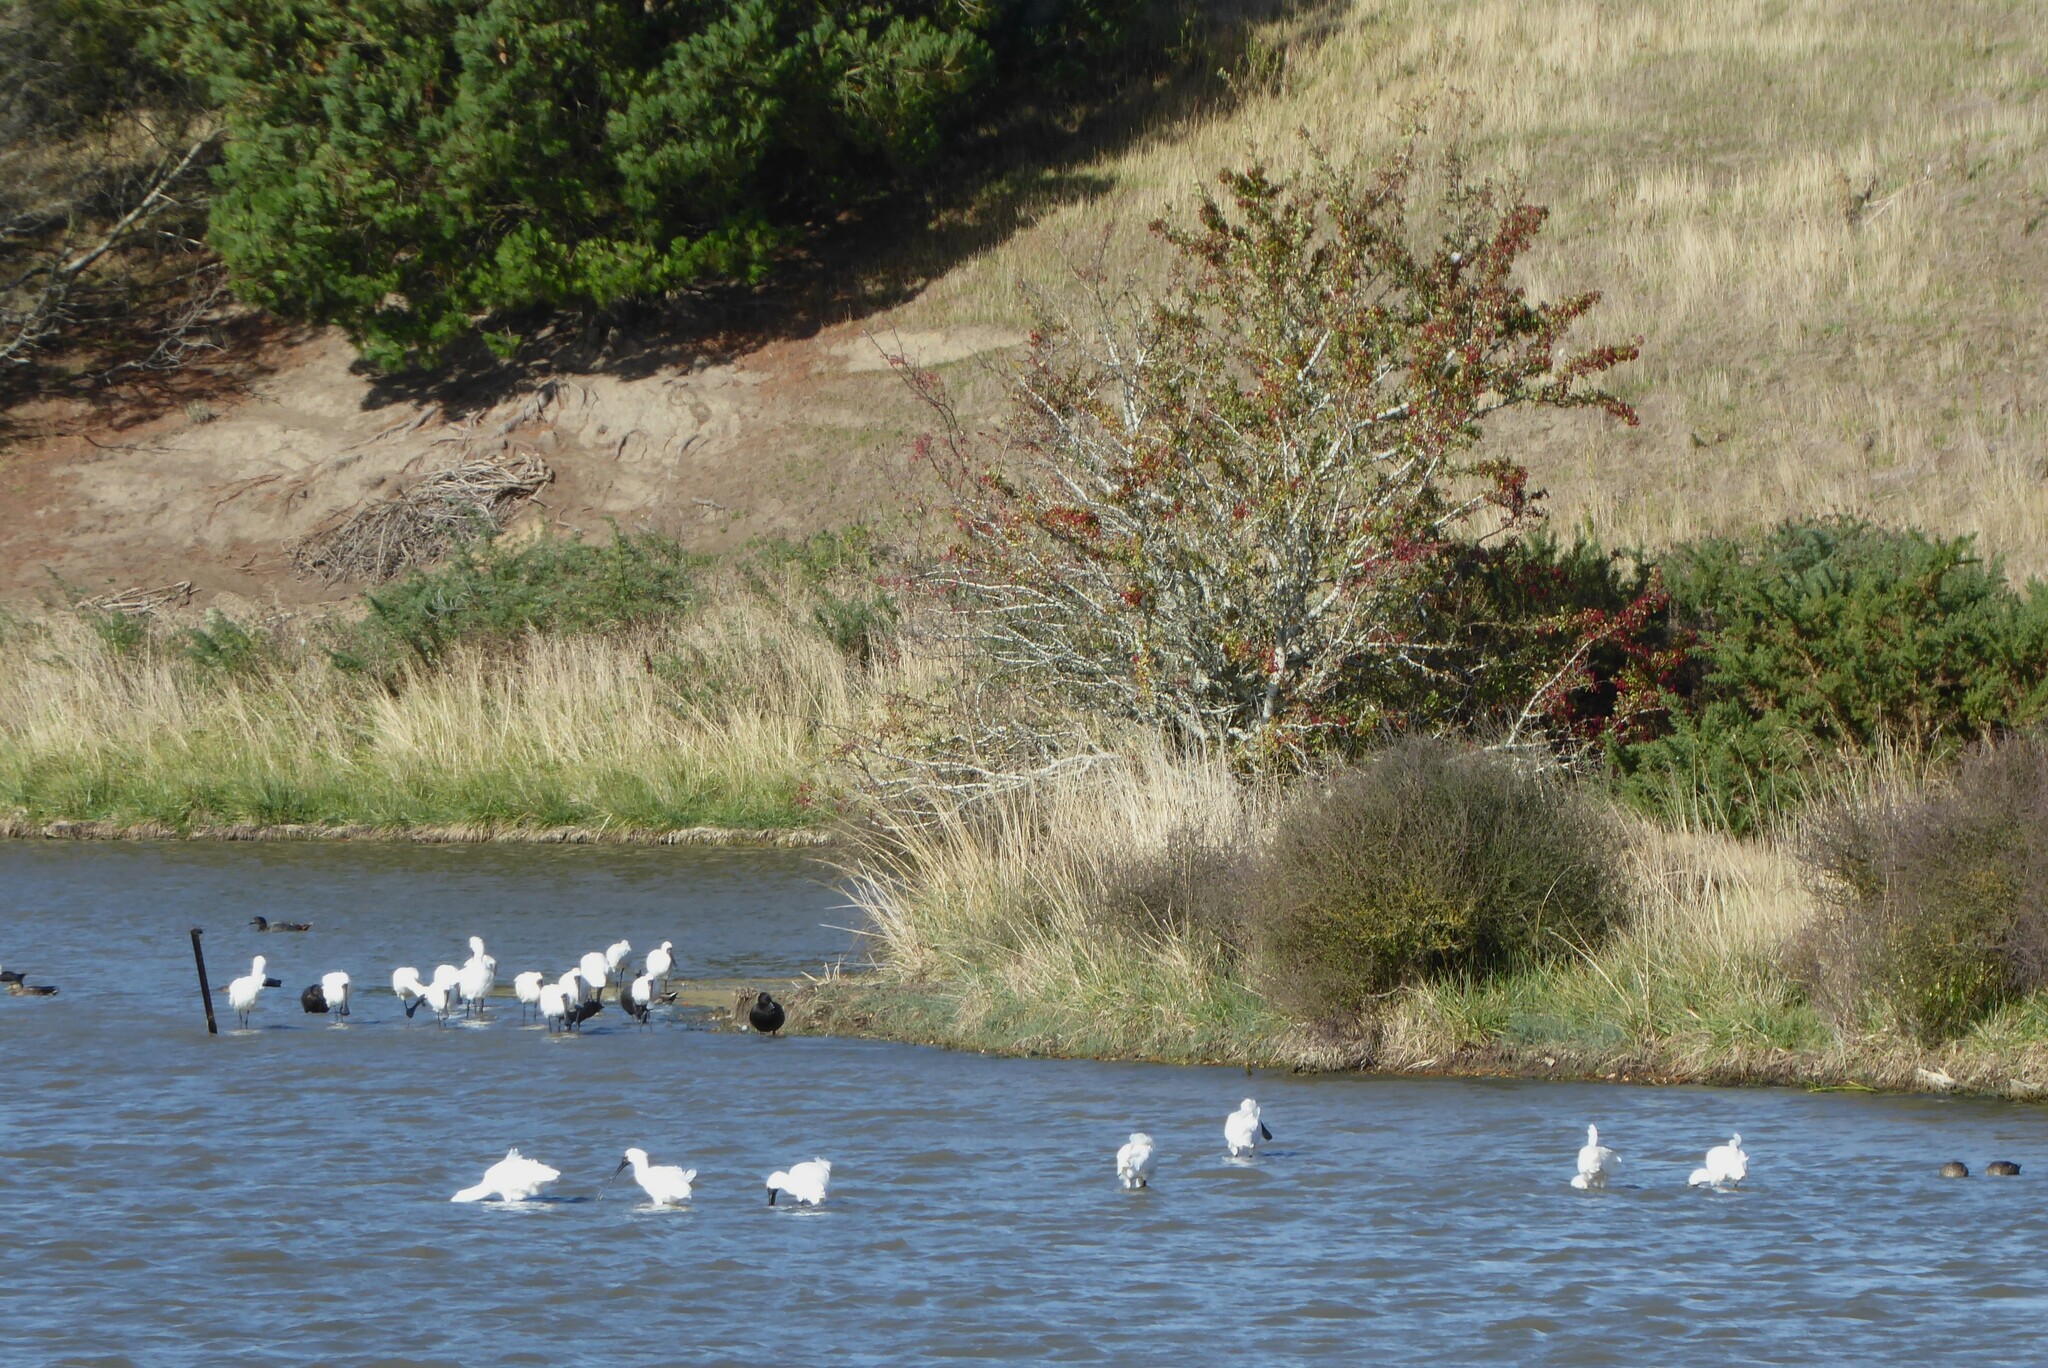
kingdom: Animalia
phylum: Chordata
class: Aves
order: Pelecaniformes
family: Threskiornithidae
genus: Platalea
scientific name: Platalea regia
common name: Royal spoonbill
